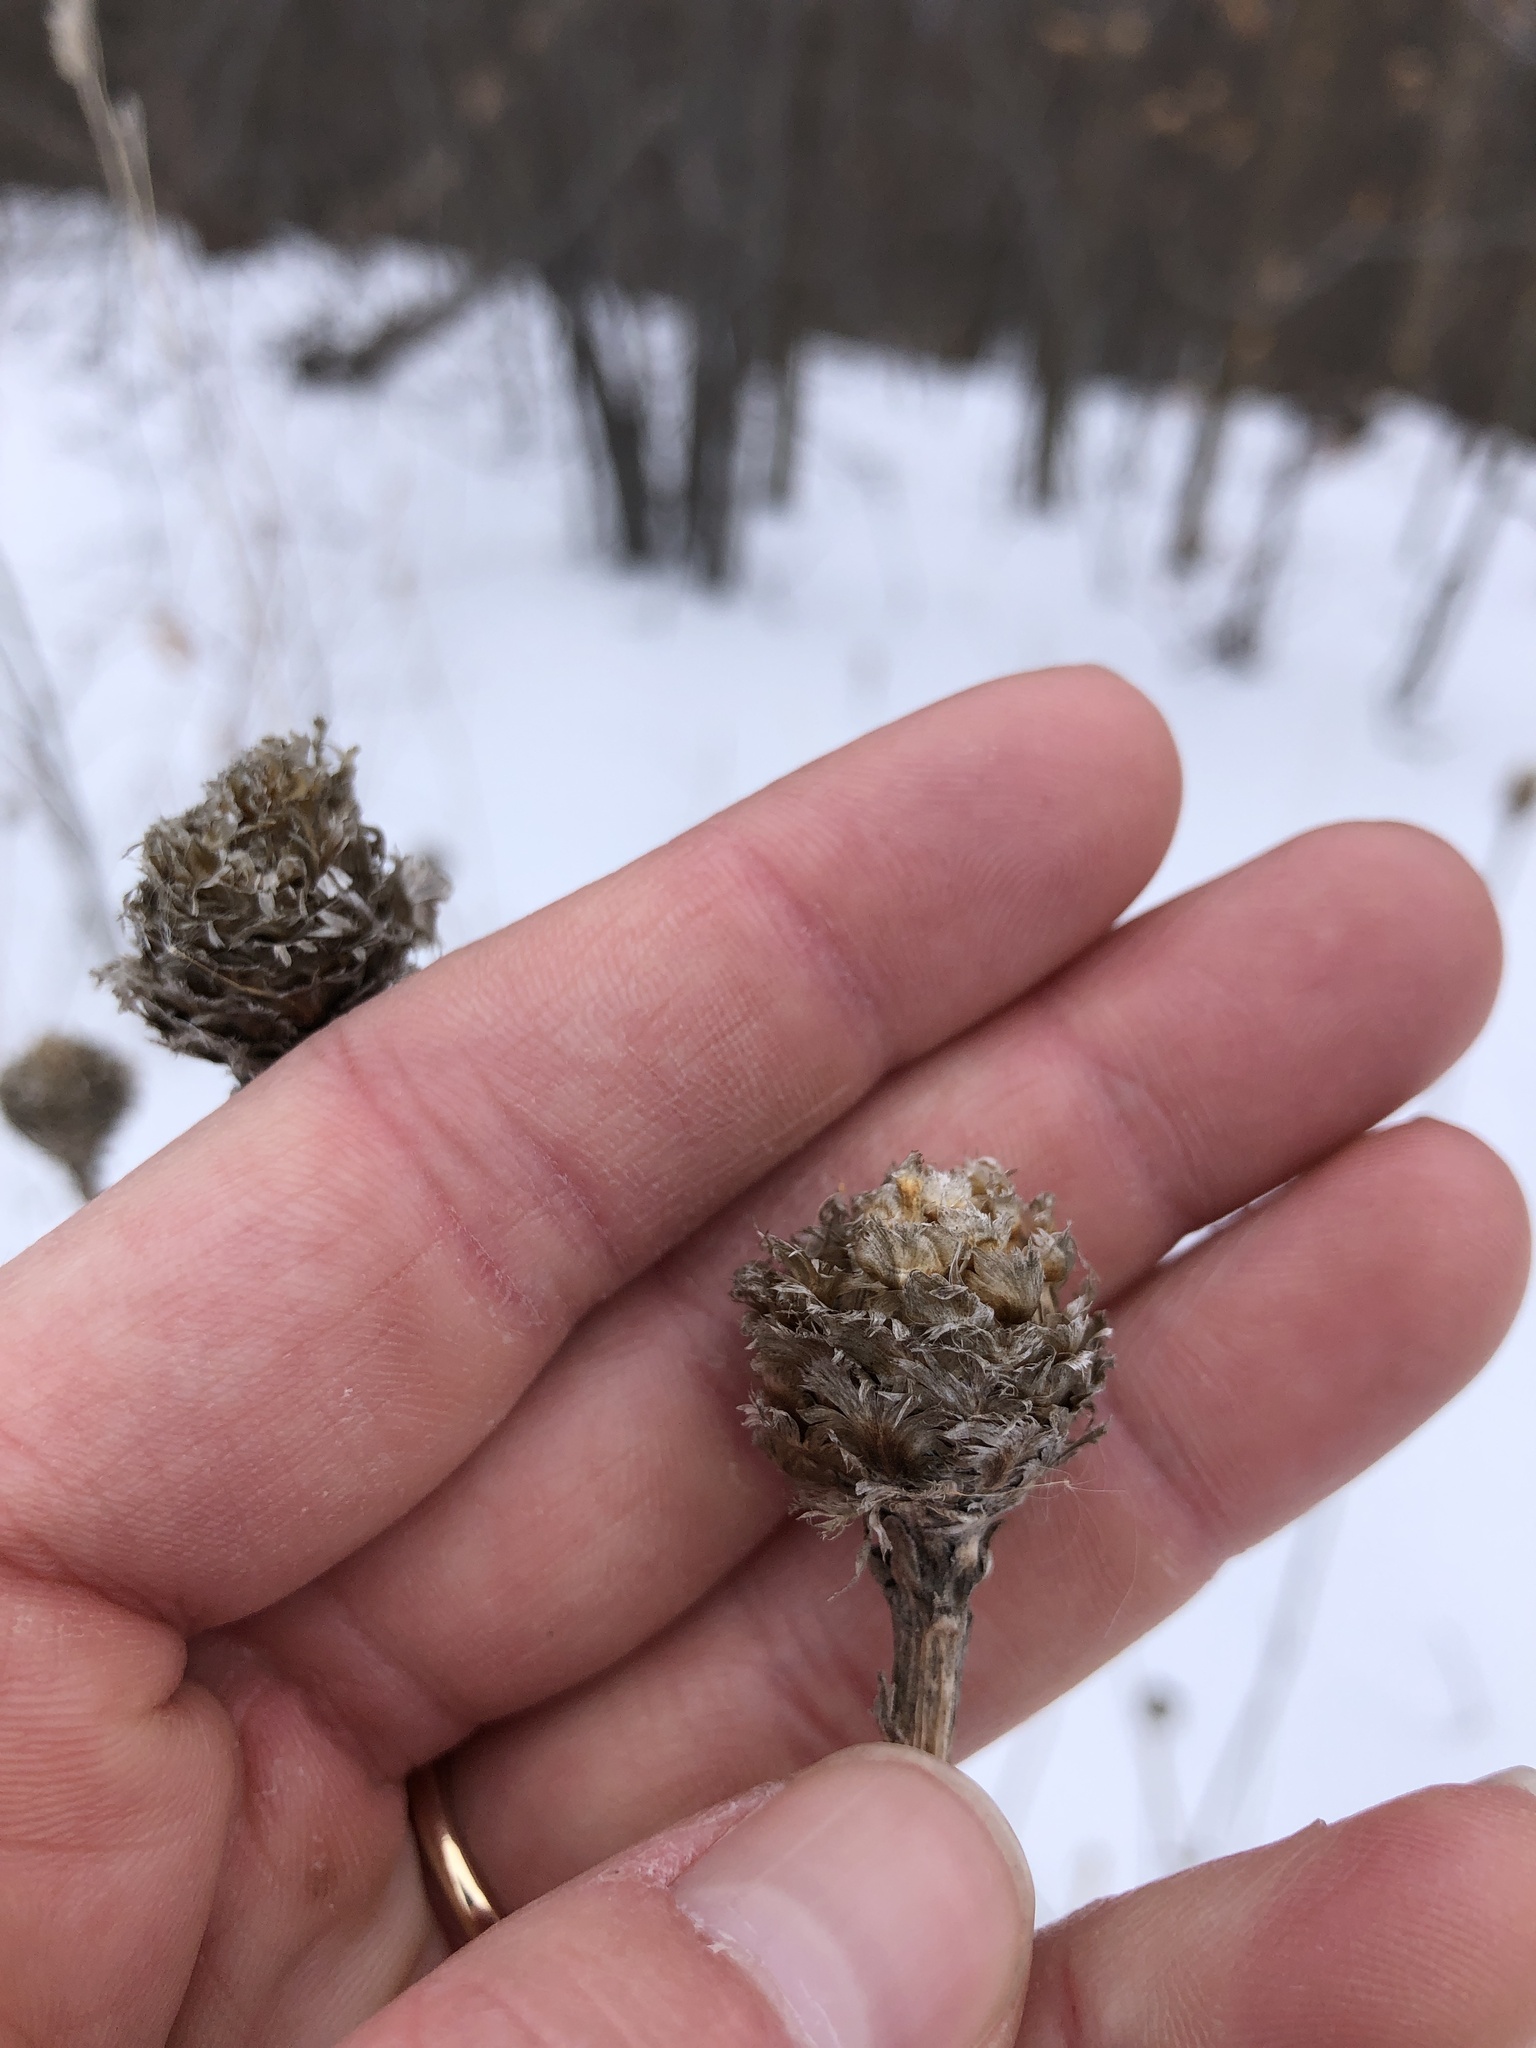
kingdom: Plantae
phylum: Tracheophyta
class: Magnoliopsida
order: Asterales
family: Asteraceae
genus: Centaurea
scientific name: Centaurea jacea
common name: Brown knapweed
